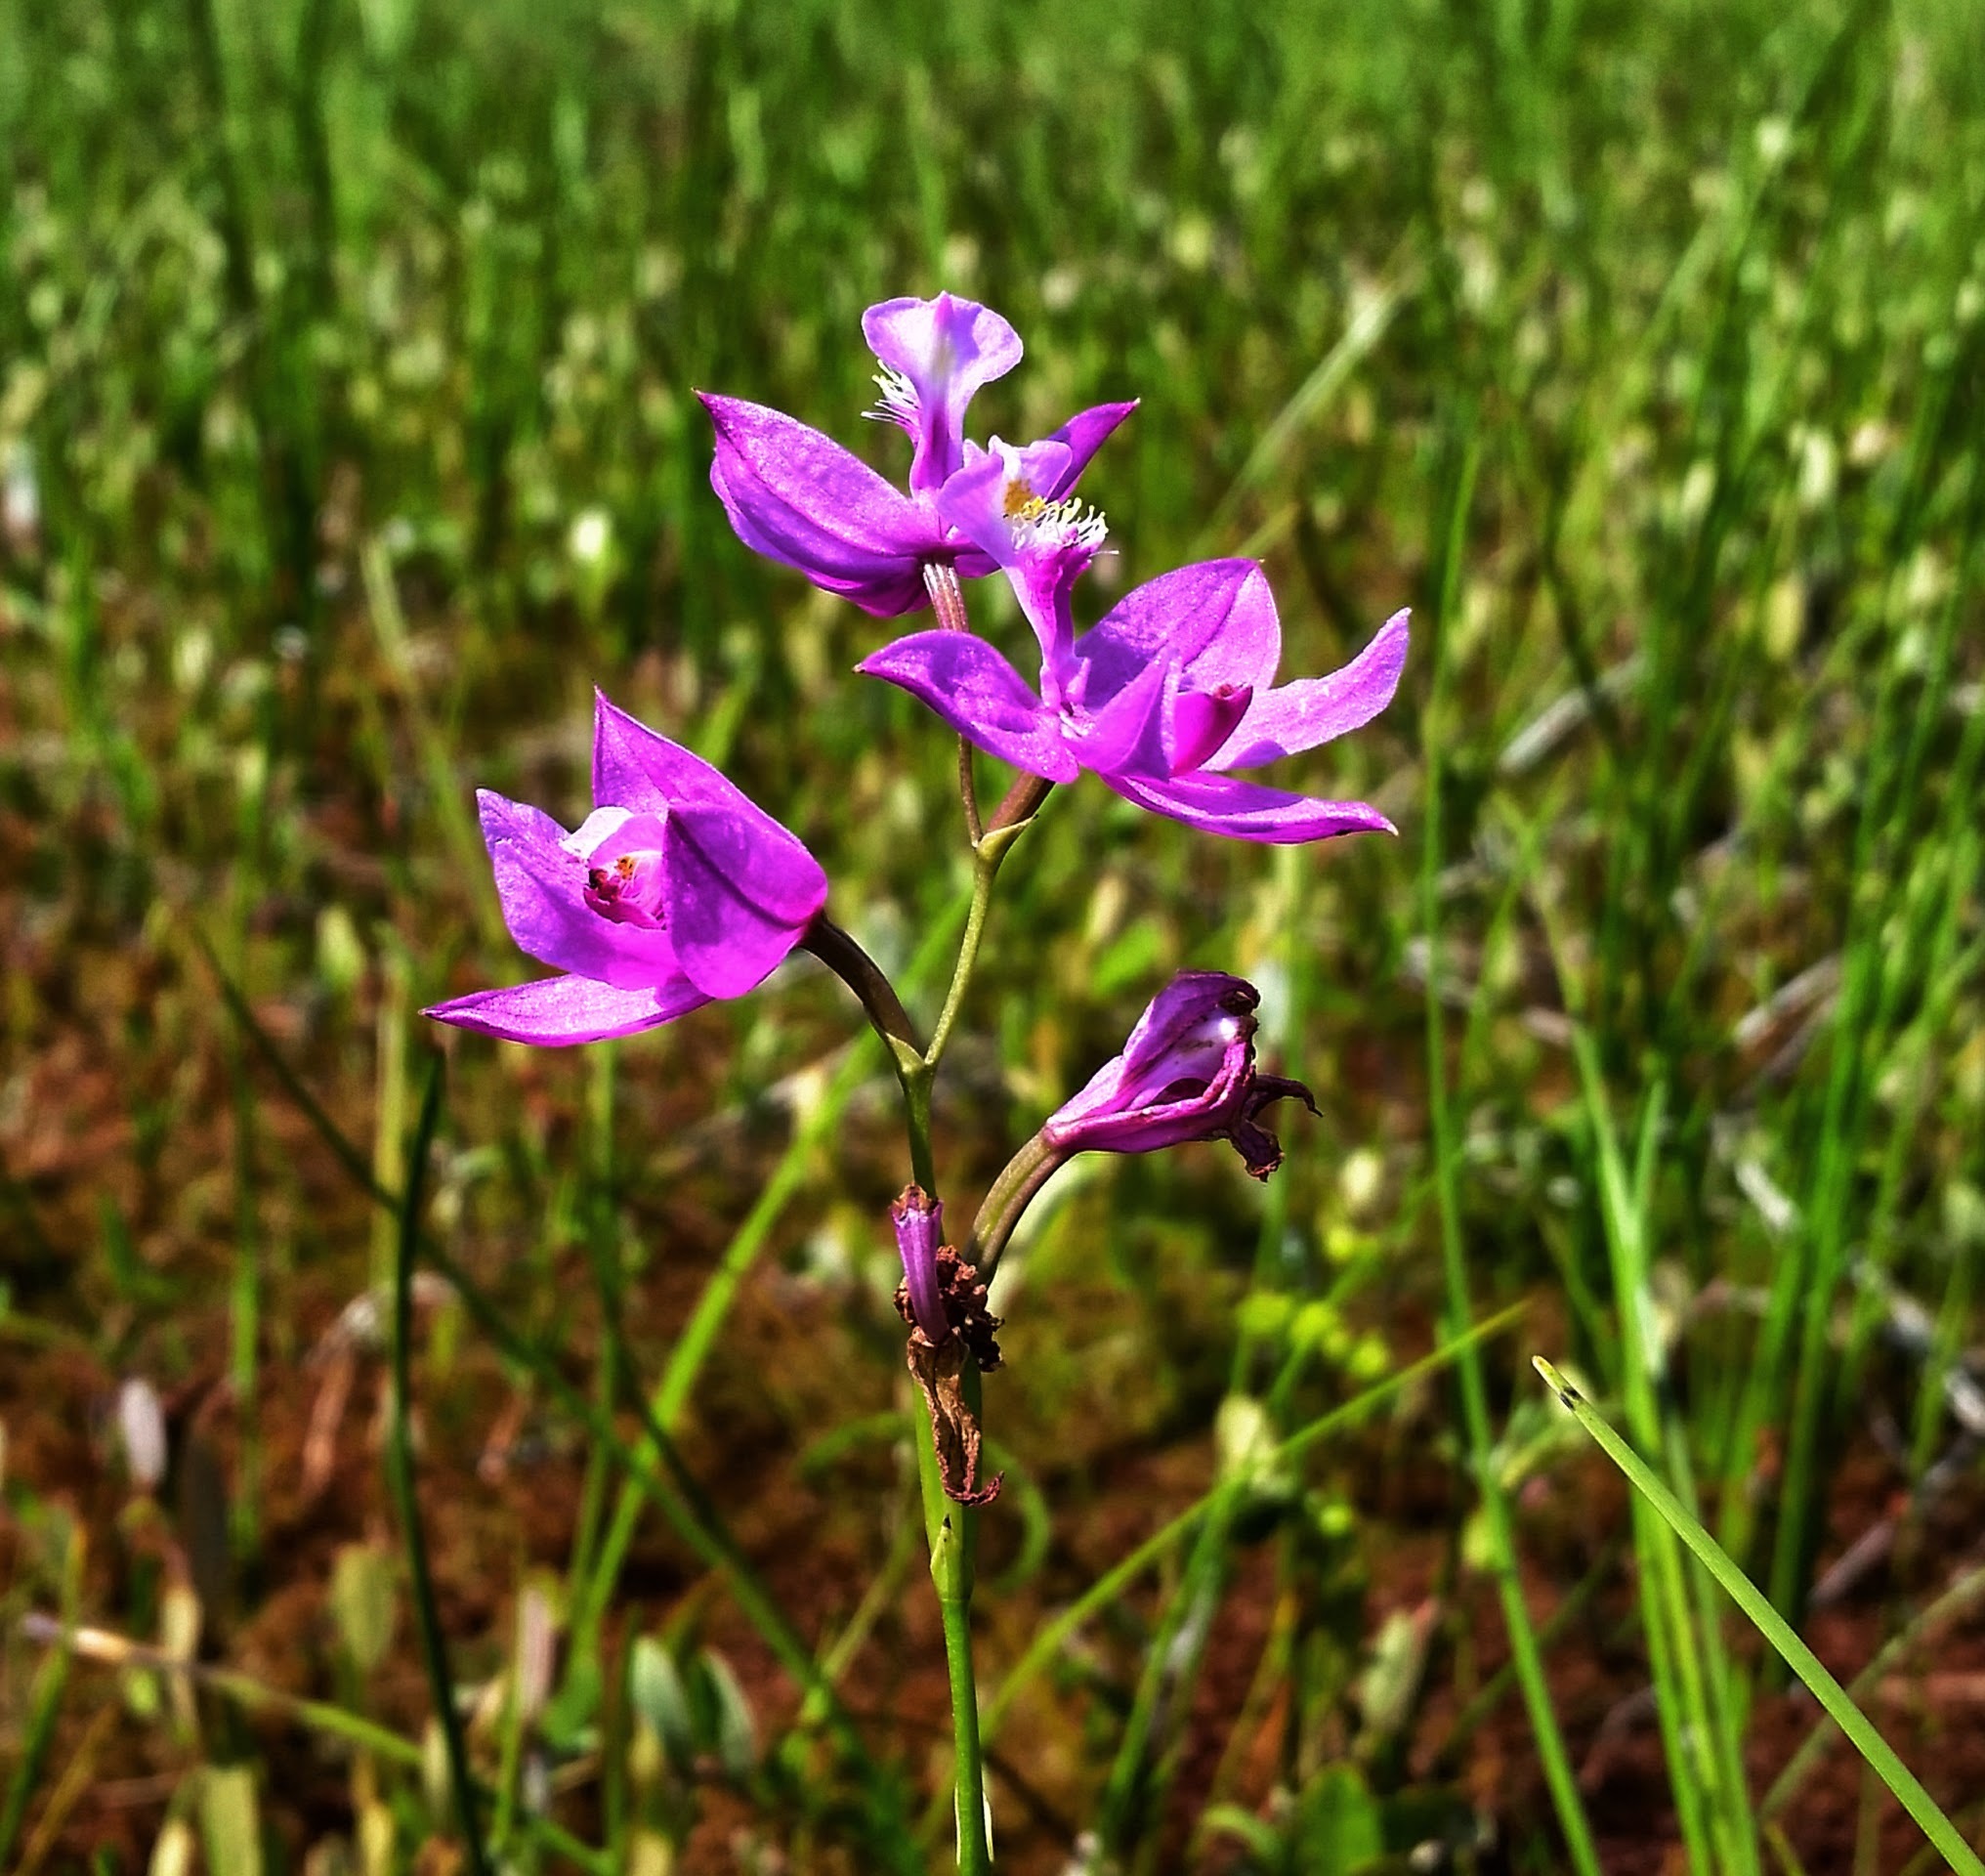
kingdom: Plantae
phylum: Tracheophyta
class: Liliopsida
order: Asparagales
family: Orchidaceae
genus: Calopogon
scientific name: Calopogon tuberosus
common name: Grass-pink
